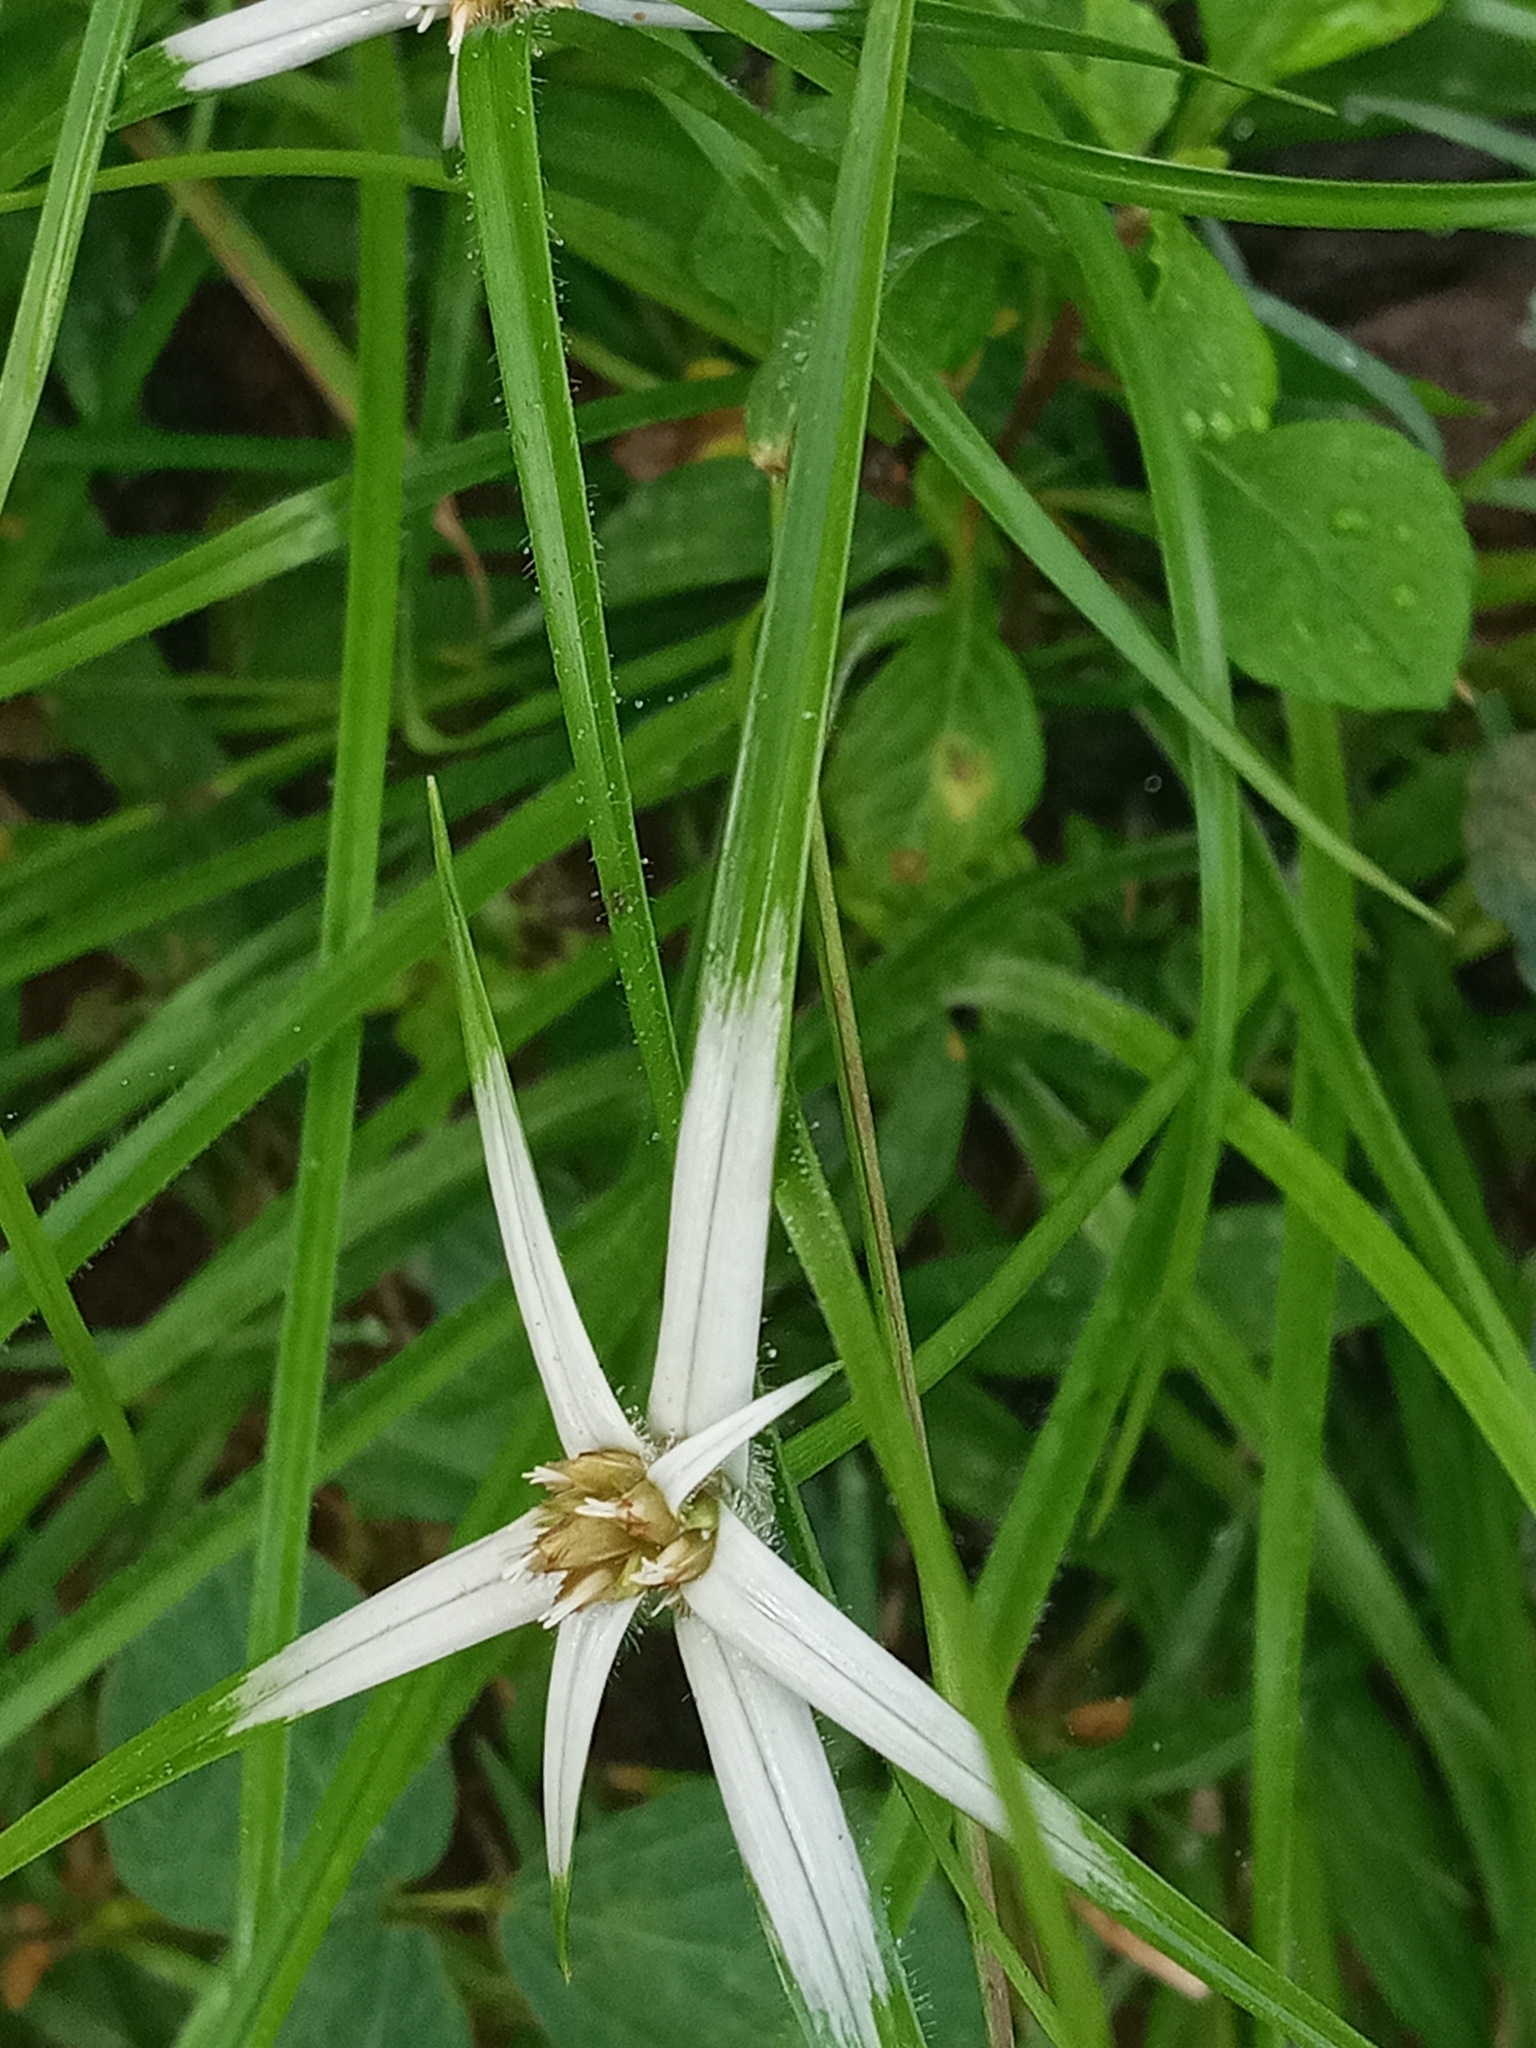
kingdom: Plantae
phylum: Tracheophyta
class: Liliopsida
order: Poales
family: Cyperaceae
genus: Rhynchospora
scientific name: Rhynchospora nervosa
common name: Star sedge
